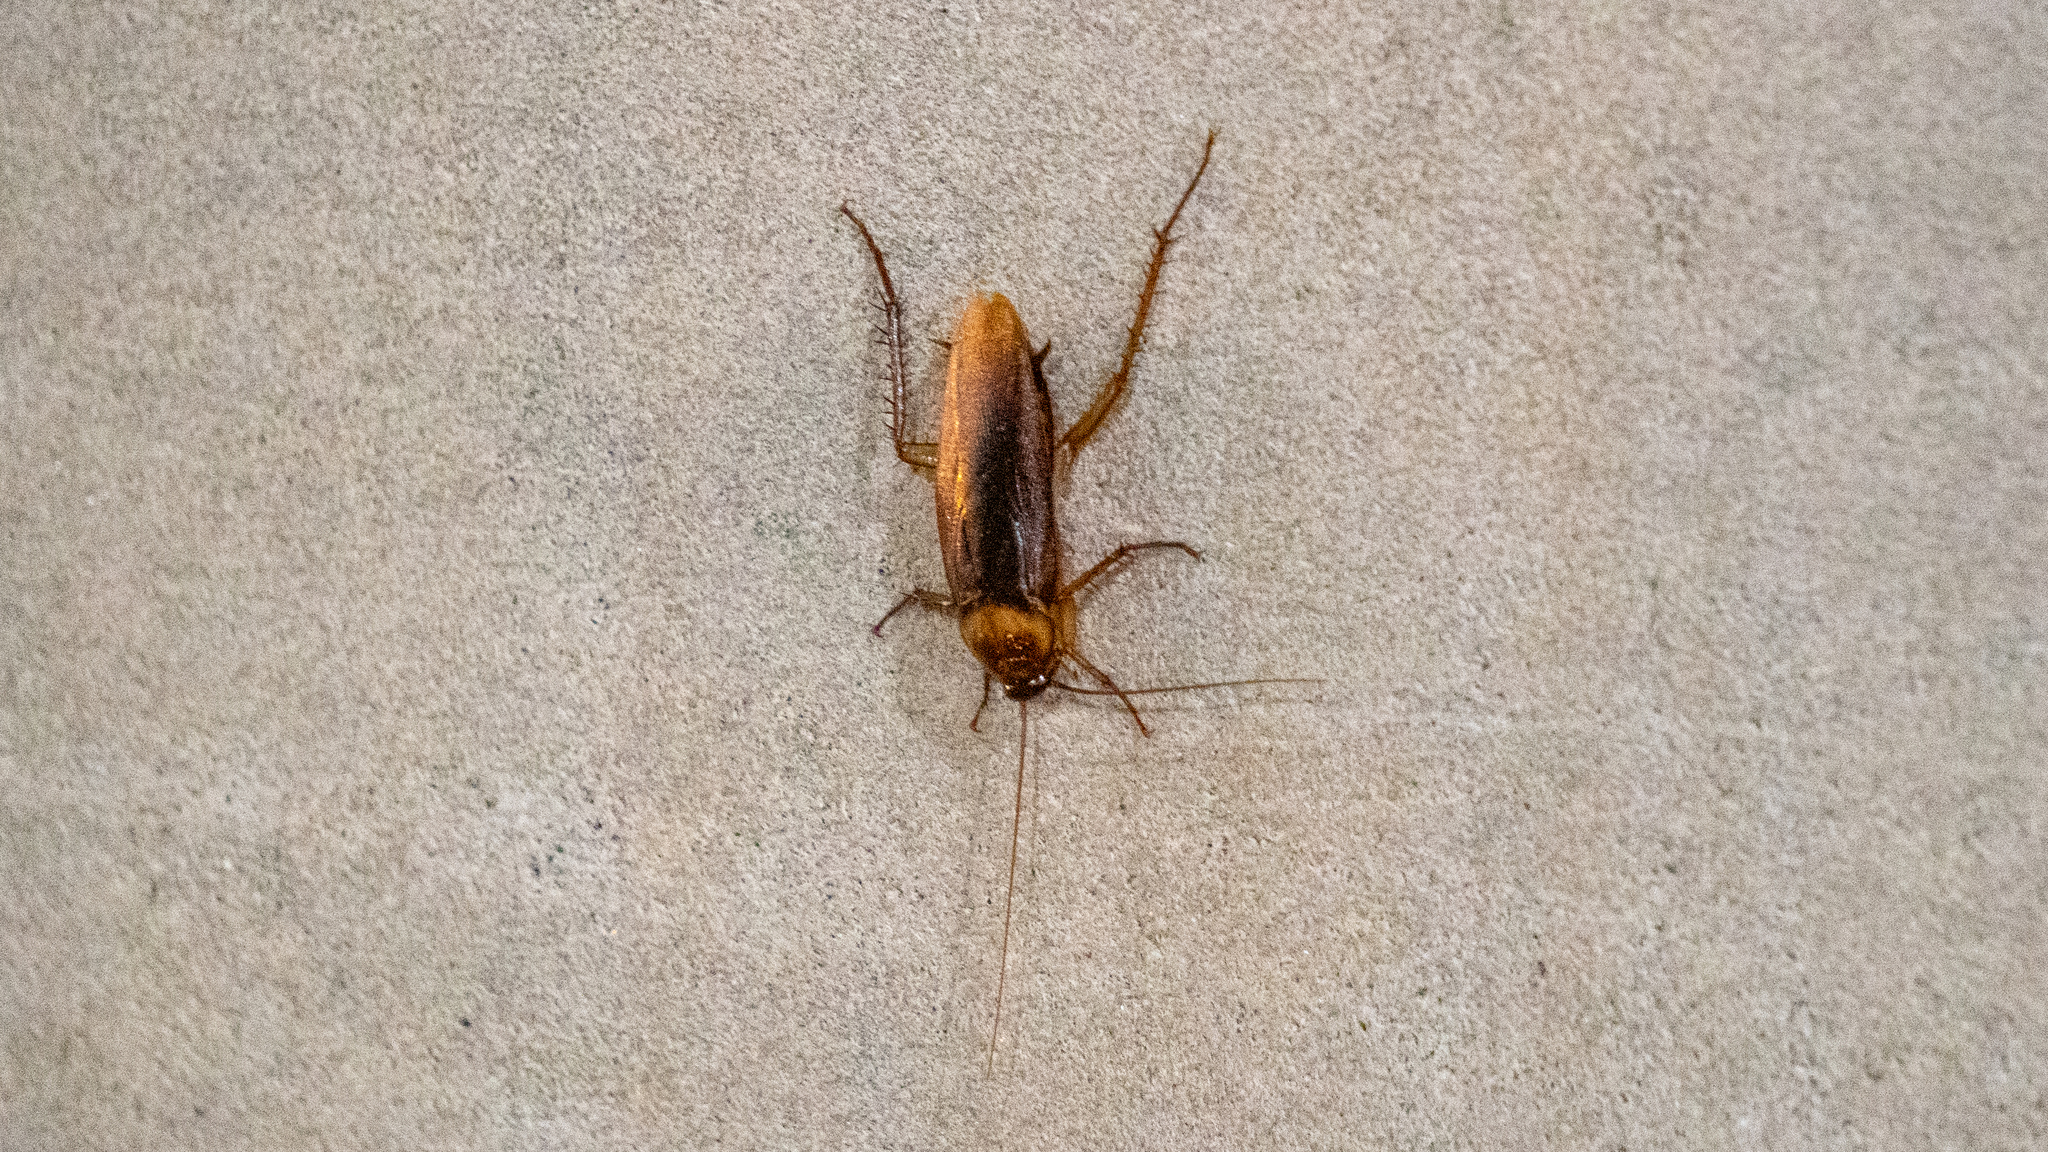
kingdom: Animalia
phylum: Arthropoda
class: Insecta
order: Blattodea
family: Blattidae
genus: Periplaneta
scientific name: Periplaneta americana
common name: American cockroach
